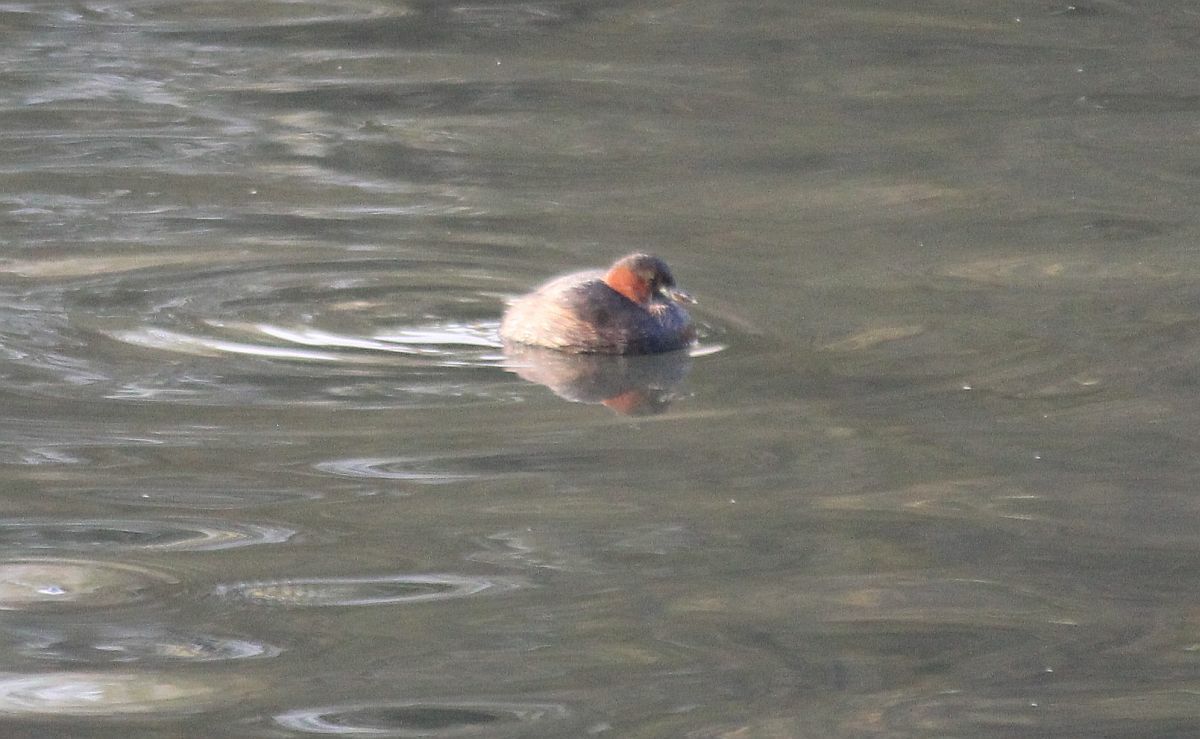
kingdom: Animalia
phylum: Chordata
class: Aves
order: Podicipediformes
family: Podicipedidae
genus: Tachybaptus
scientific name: Tachybaptus ruficollis
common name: Little grebe
